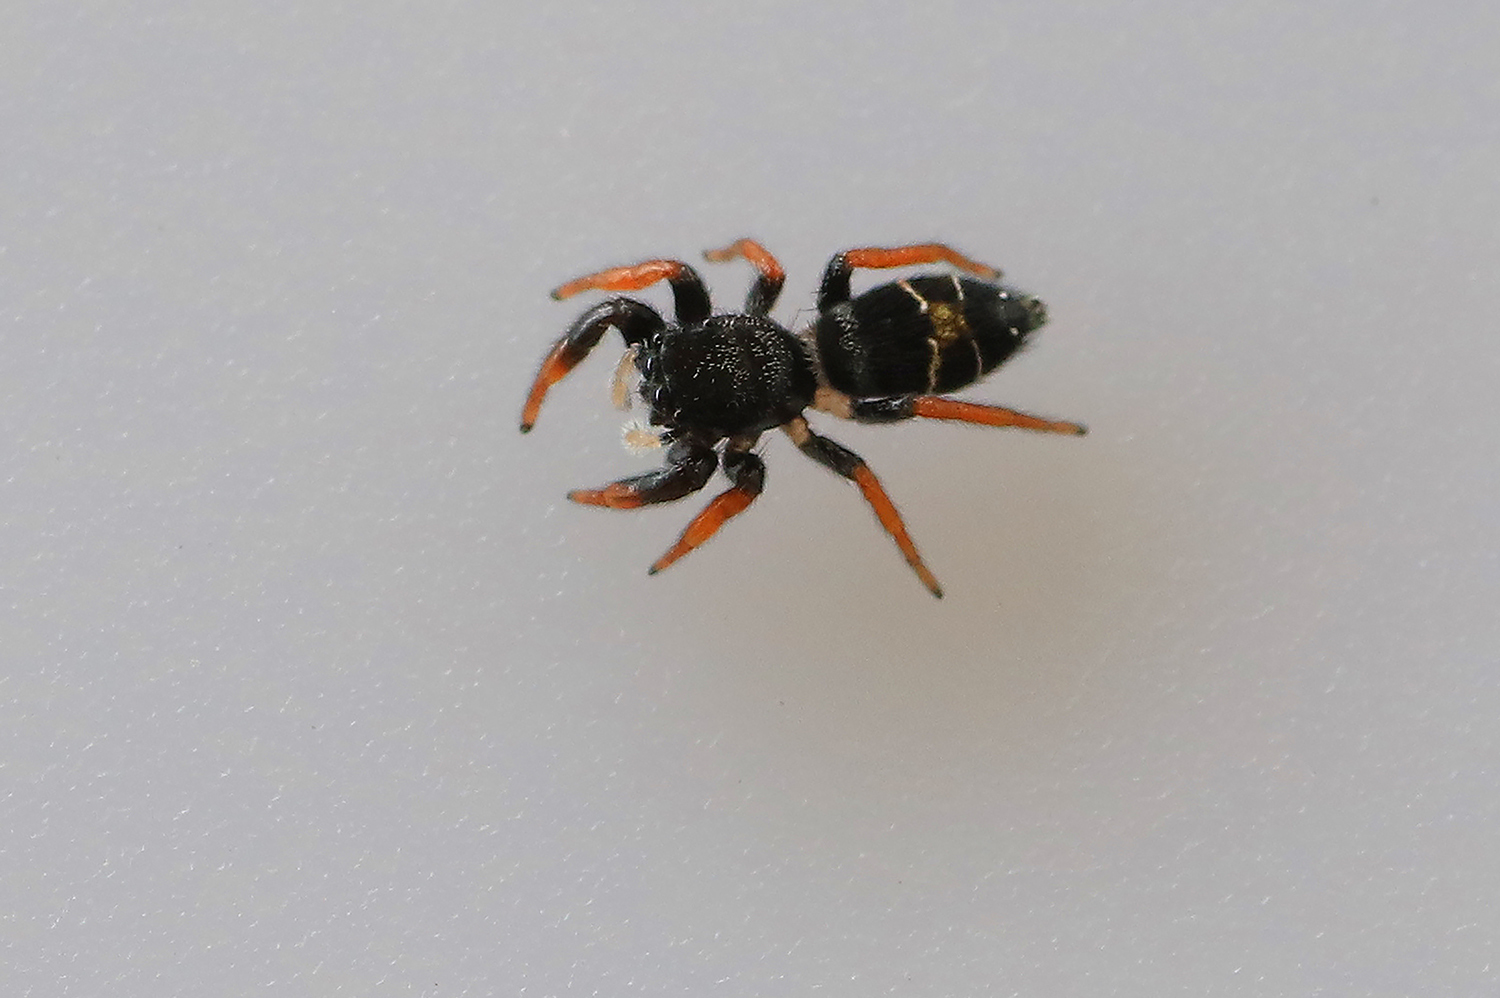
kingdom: Animalia
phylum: Arthropoda
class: Arachnida
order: Araneae
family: Salticidae
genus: Apricia
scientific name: Apricia jovialis
